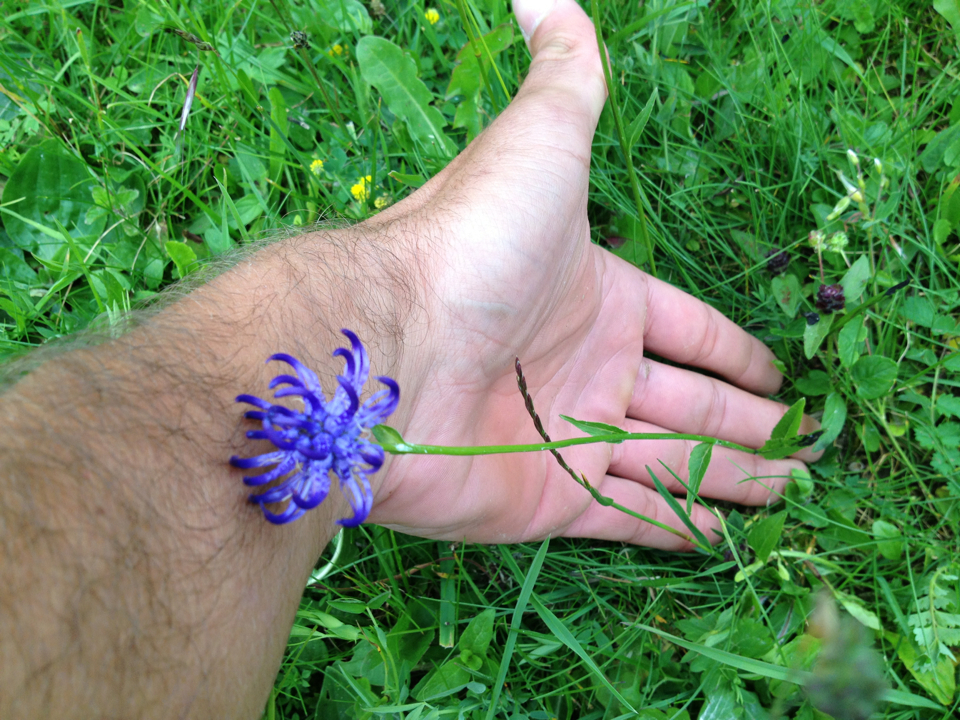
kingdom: Plantae
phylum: Tracheophyta
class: Magnoliopsida
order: Asterales
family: Campanulaceae
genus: Phyteuma
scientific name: Phyteuma orbiculare
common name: Round-headed rampion
